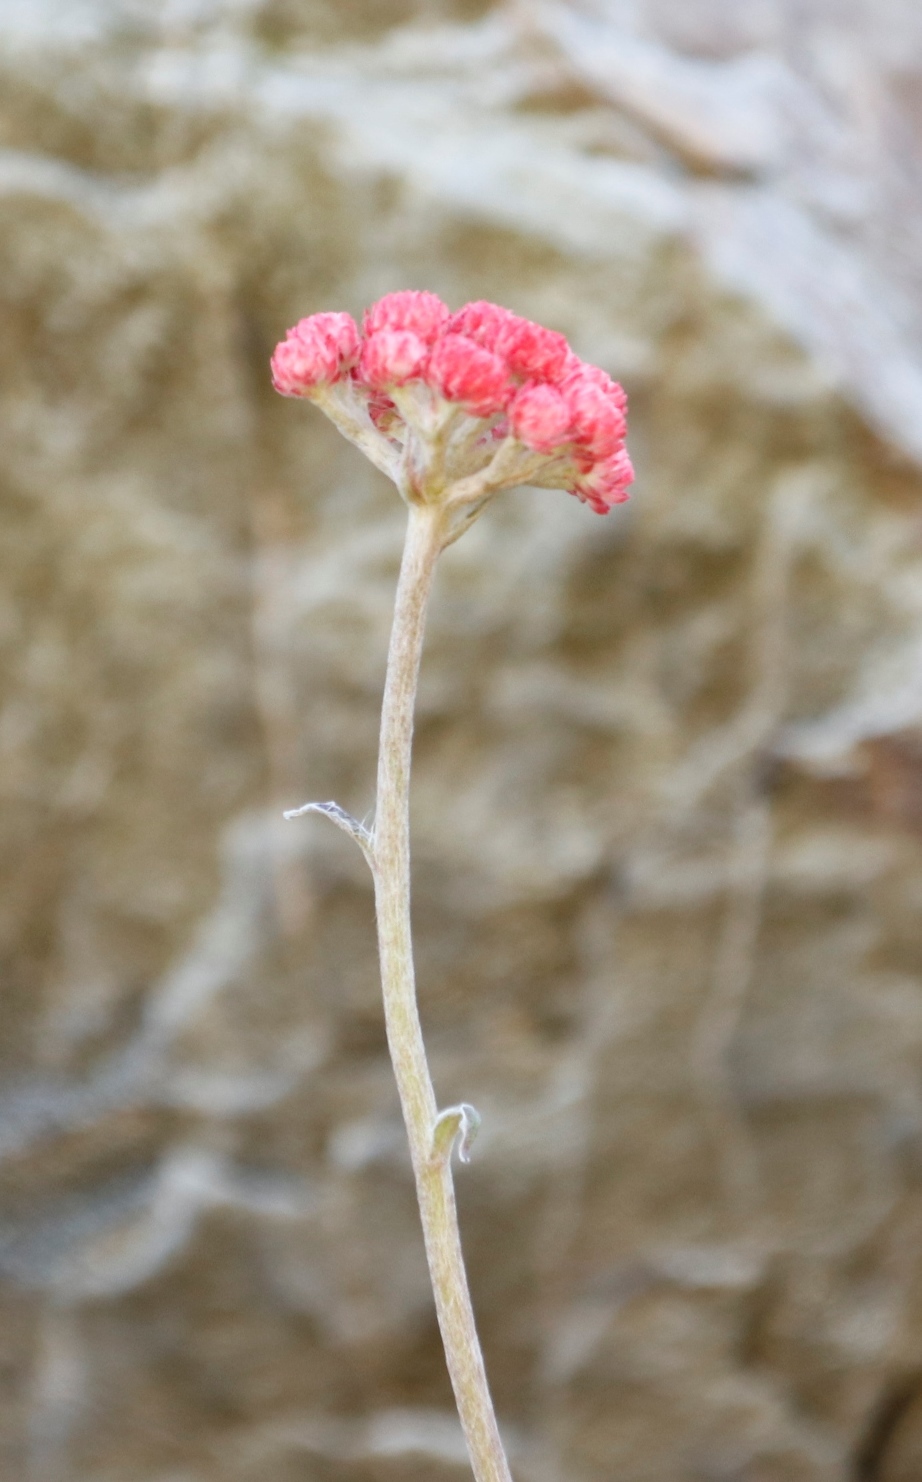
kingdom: Plantae
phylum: Tracheophyta
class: Magnoliopsida
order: Asterales
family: Asteraceae
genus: Helichrysum
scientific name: Helichrysum felinum
